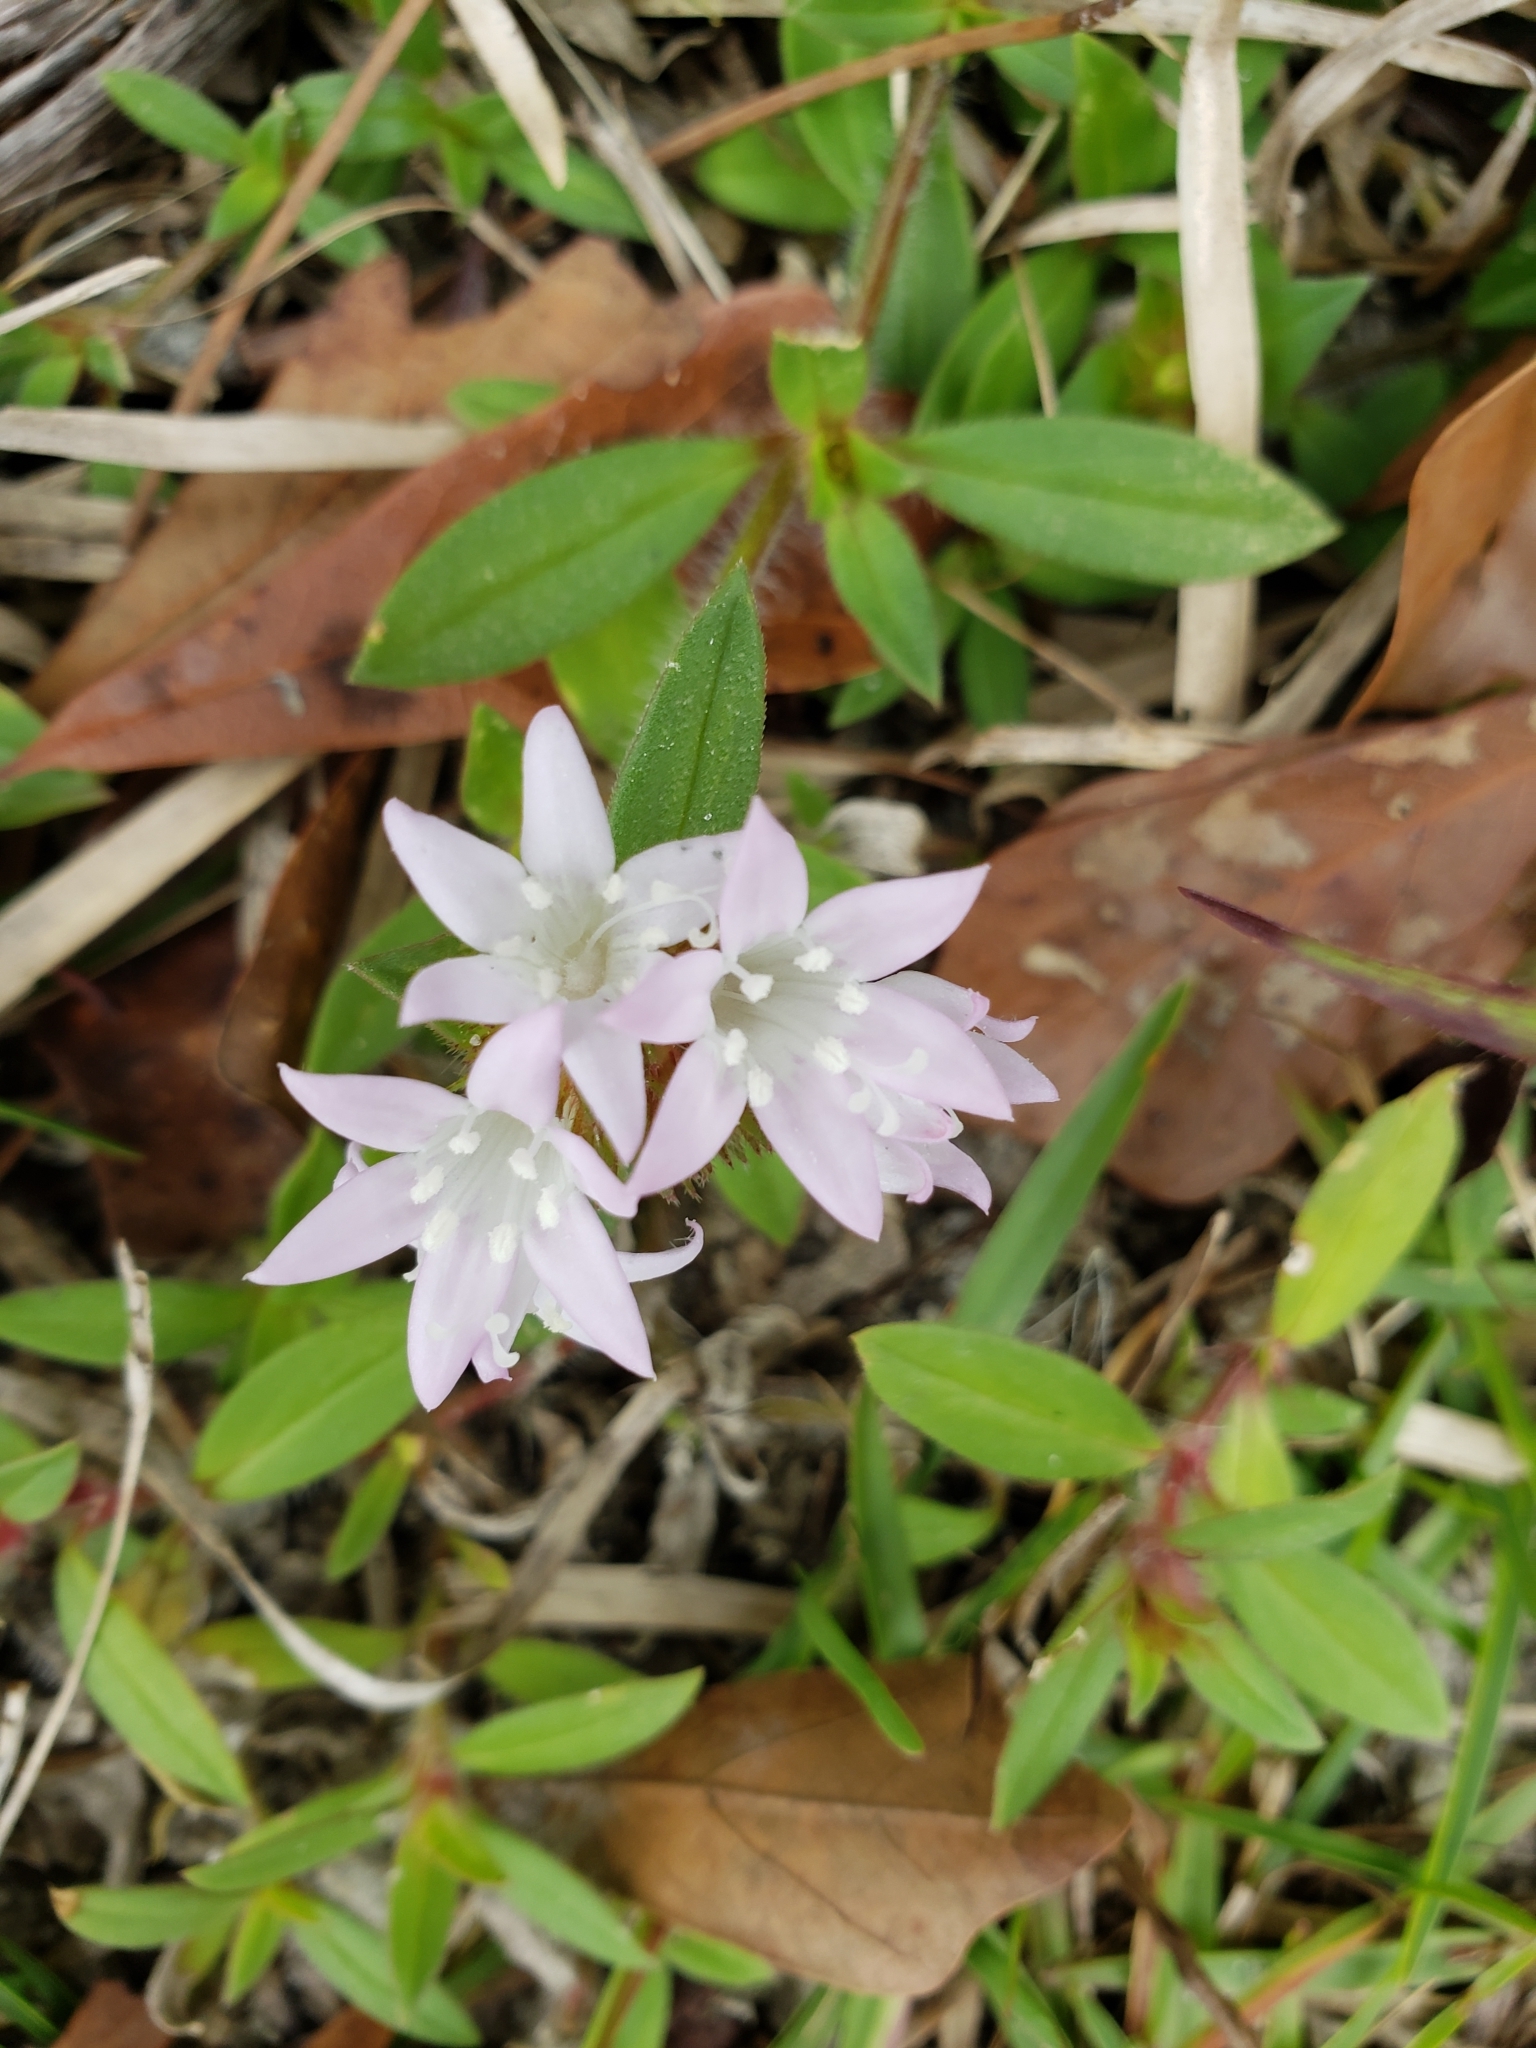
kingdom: Plantae
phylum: Tracheophyta
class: Magnoliopsida
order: Gentianales
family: Rubiaceae
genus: Richardia
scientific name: Richardia grandiflora
